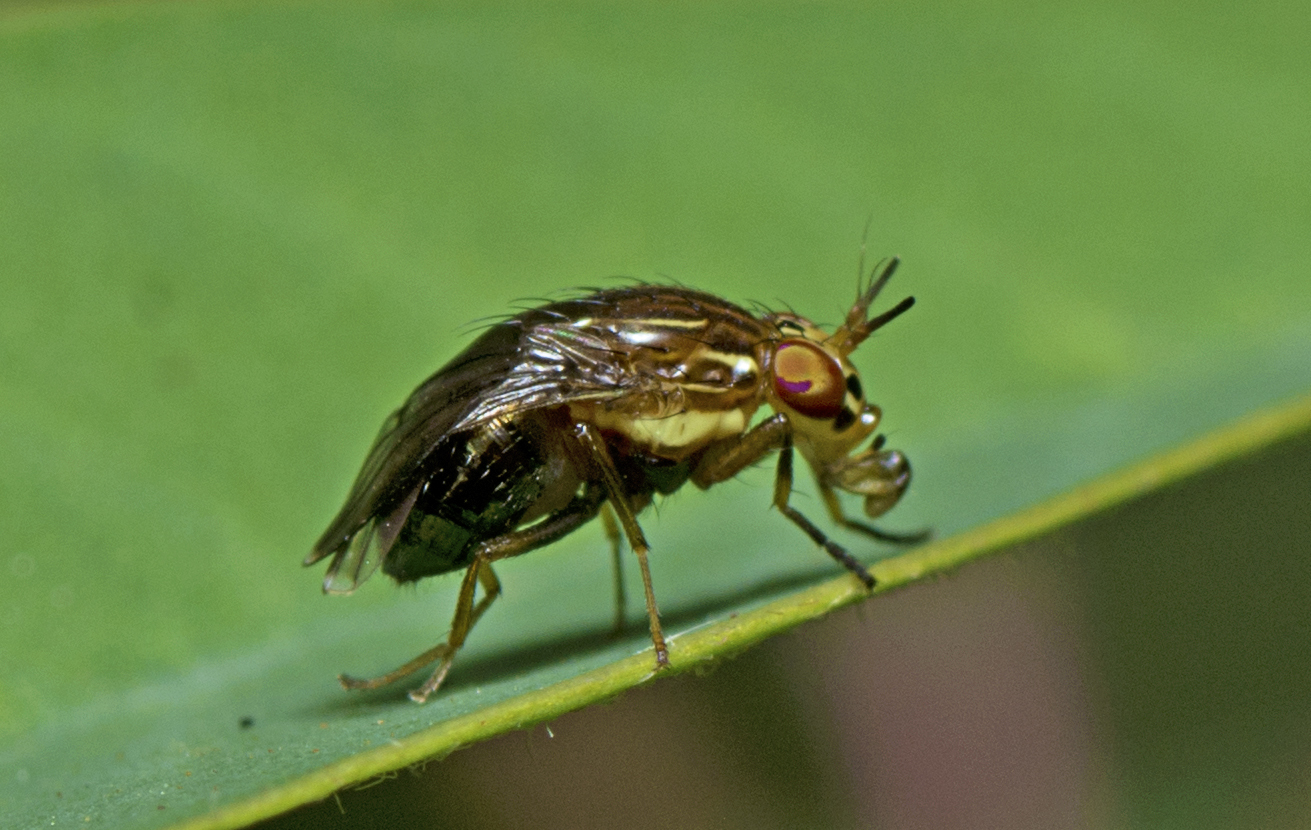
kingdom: Animalia
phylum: Arthropoda
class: Insecta
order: Diptera
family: Lauxaniidae
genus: Steganopsis
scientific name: Steganopsis melanogaster
